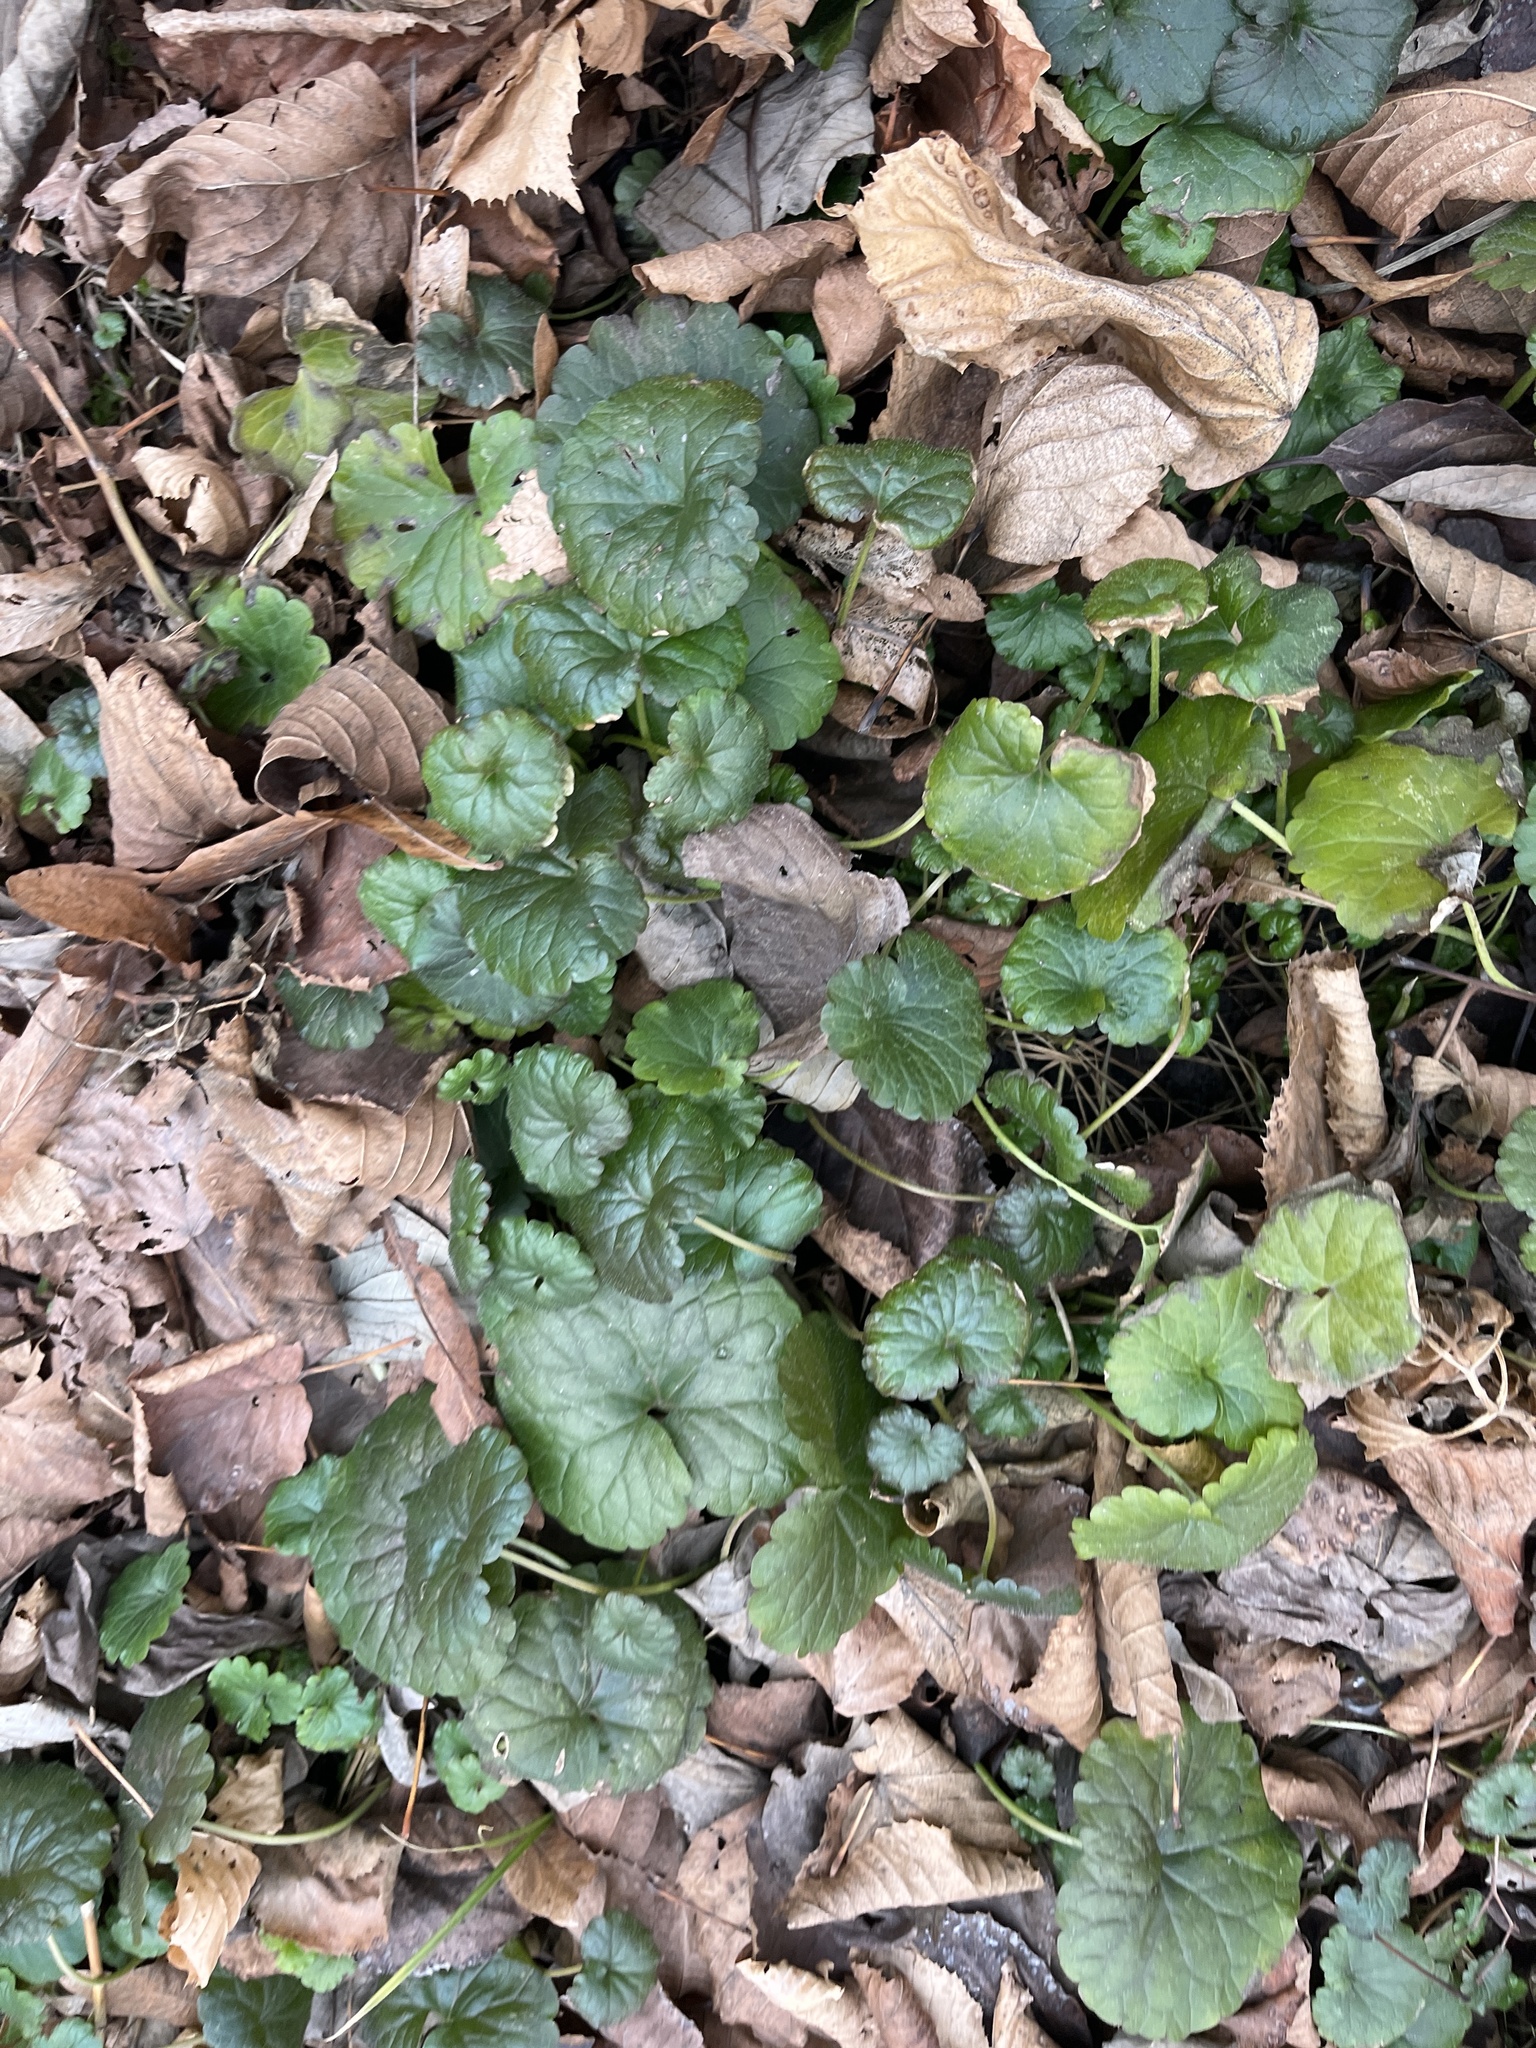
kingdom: Plantae
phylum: Tracheophyta
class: Magnoliopsida
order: Lamiales
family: Lamiaceae
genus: Glechoma
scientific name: Glechoma hederacea
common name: Ground ivy
